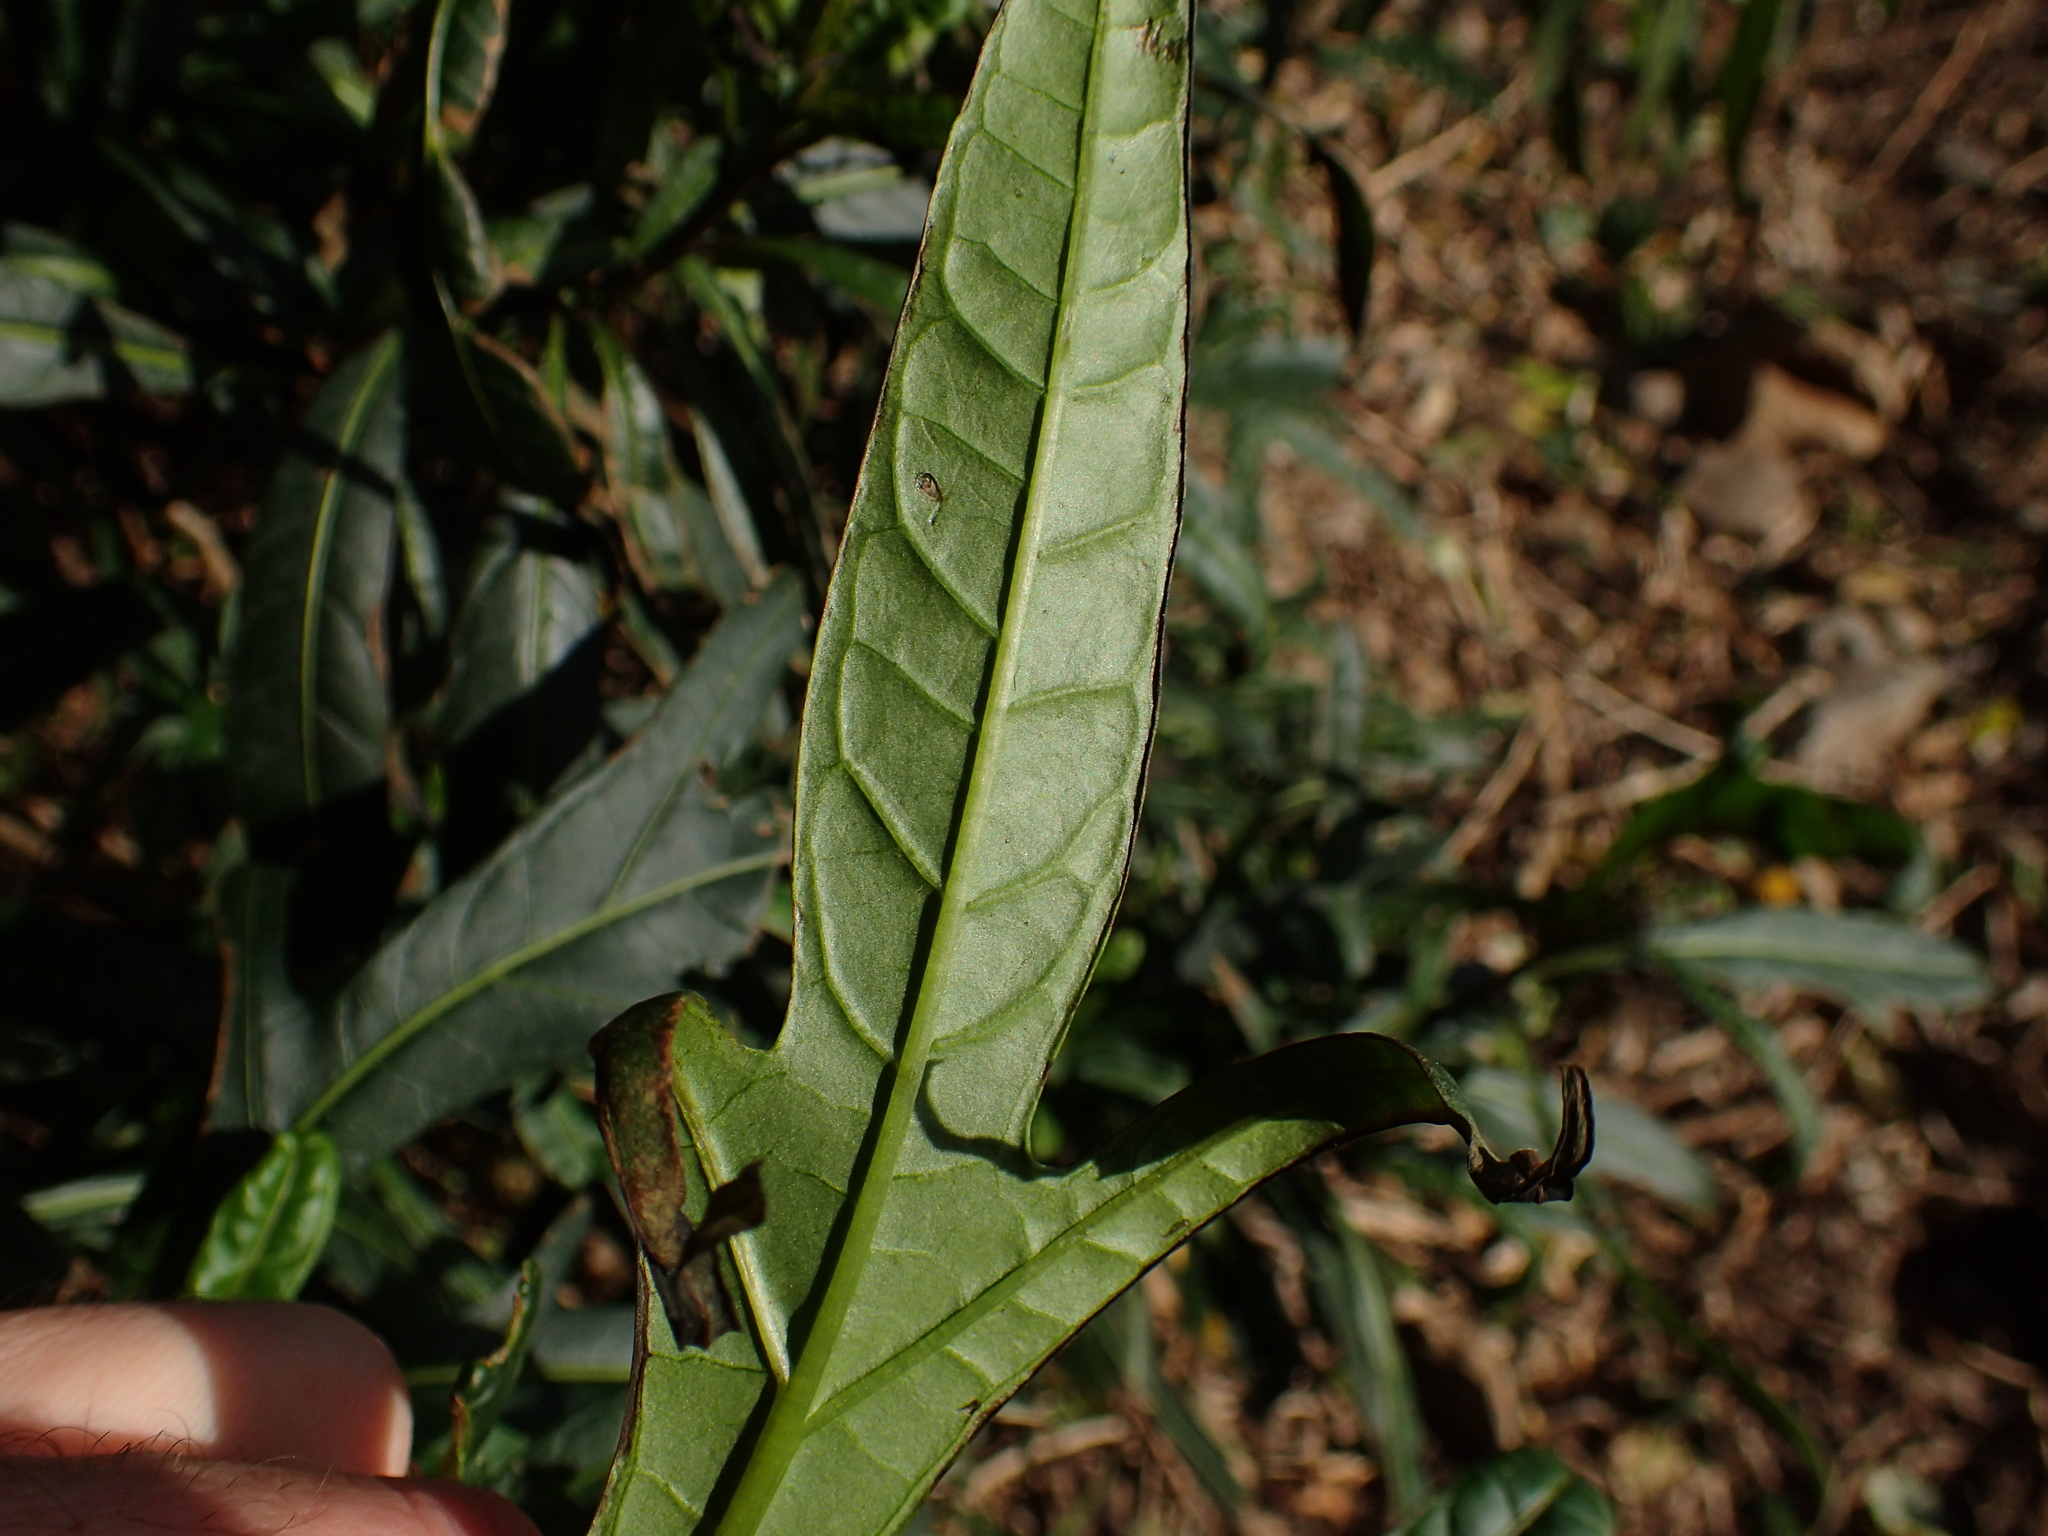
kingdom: Plantae
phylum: Tracheophyta
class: Magnoliopsida
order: Solanales
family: Solanaceae
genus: Solanum
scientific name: Solanum
